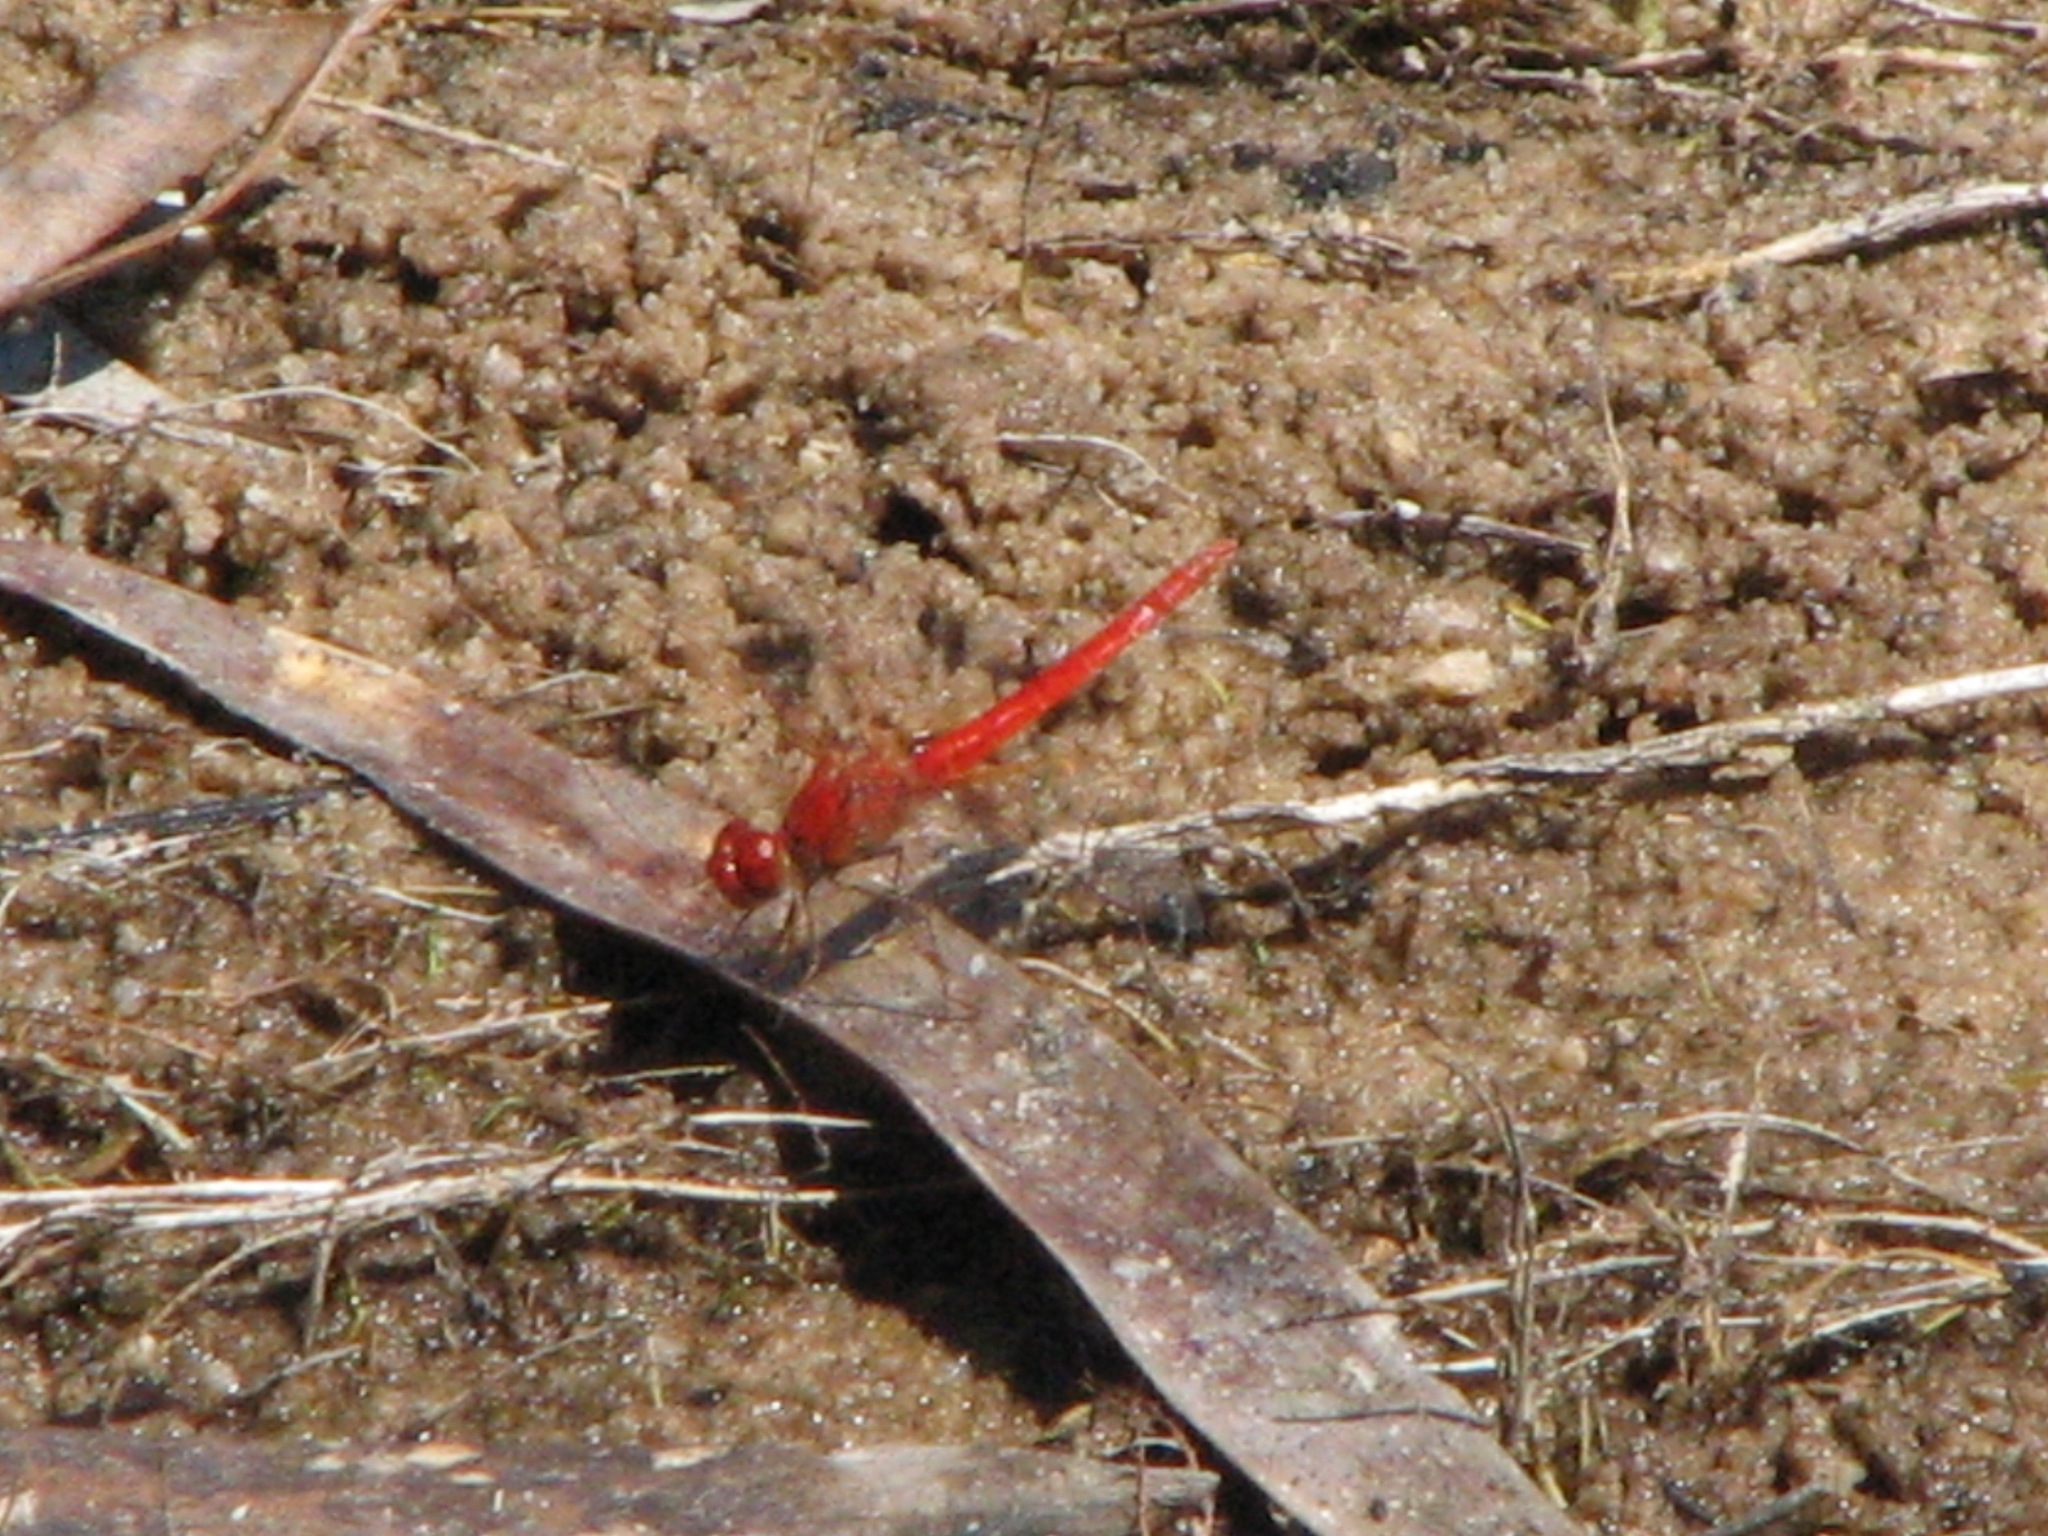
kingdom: Animalia
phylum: Arthropoda
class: Insecta
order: Odonata
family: Libellulidae
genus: Diplacodes
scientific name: Diplacodes haematodes
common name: Scarlet percher
